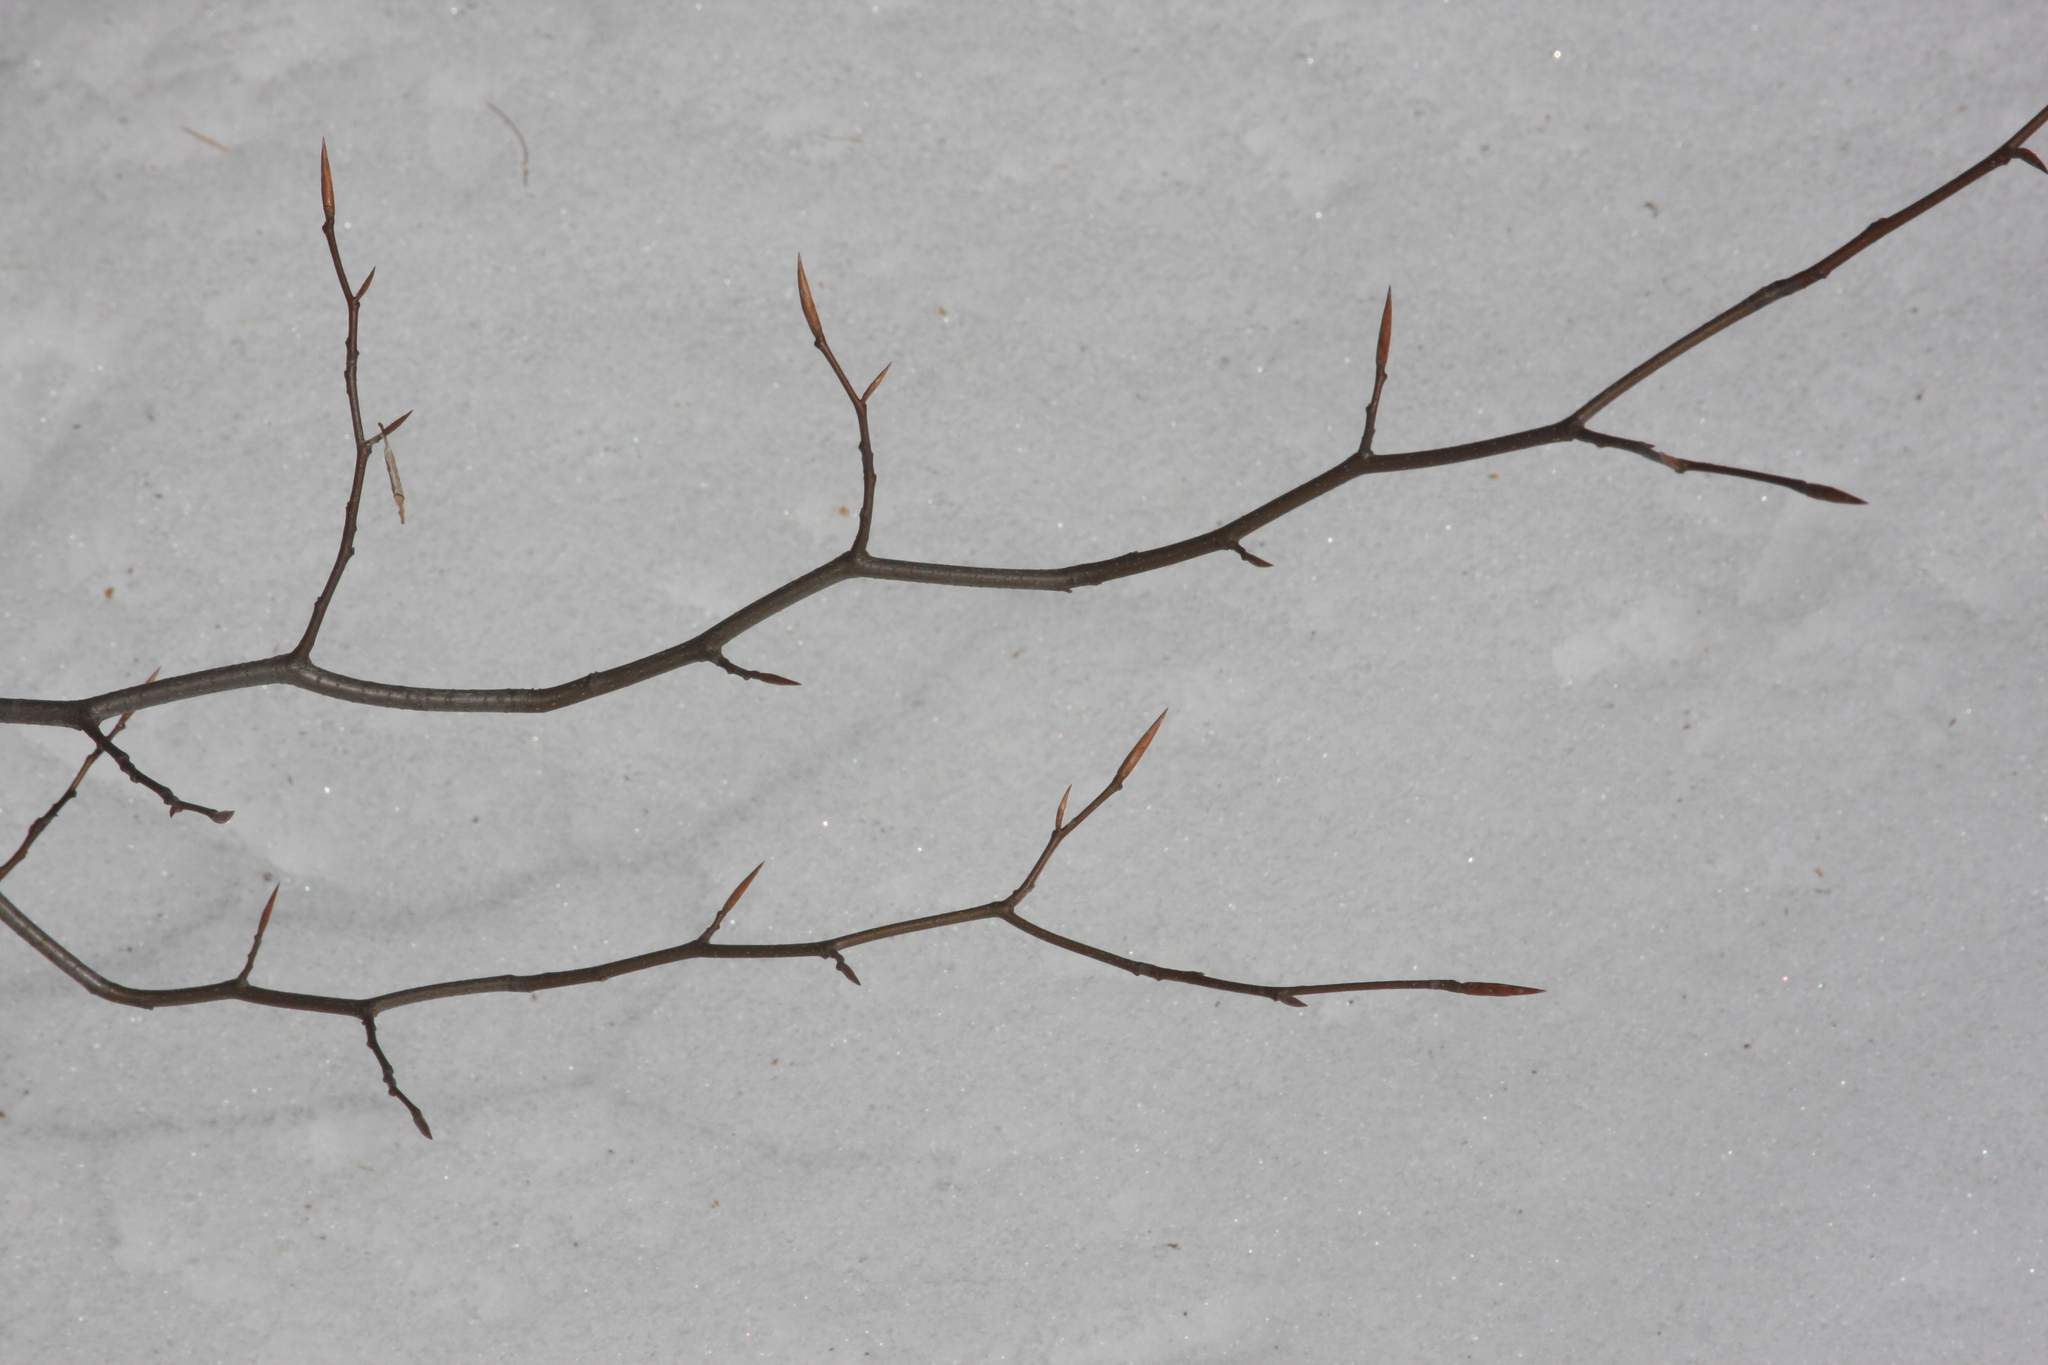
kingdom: Plantae
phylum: Tracheophyta
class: Magnoliopsida
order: Fagales
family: Fagaceae
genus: Fagus
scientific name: Fagus grandifolia
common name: American beech
